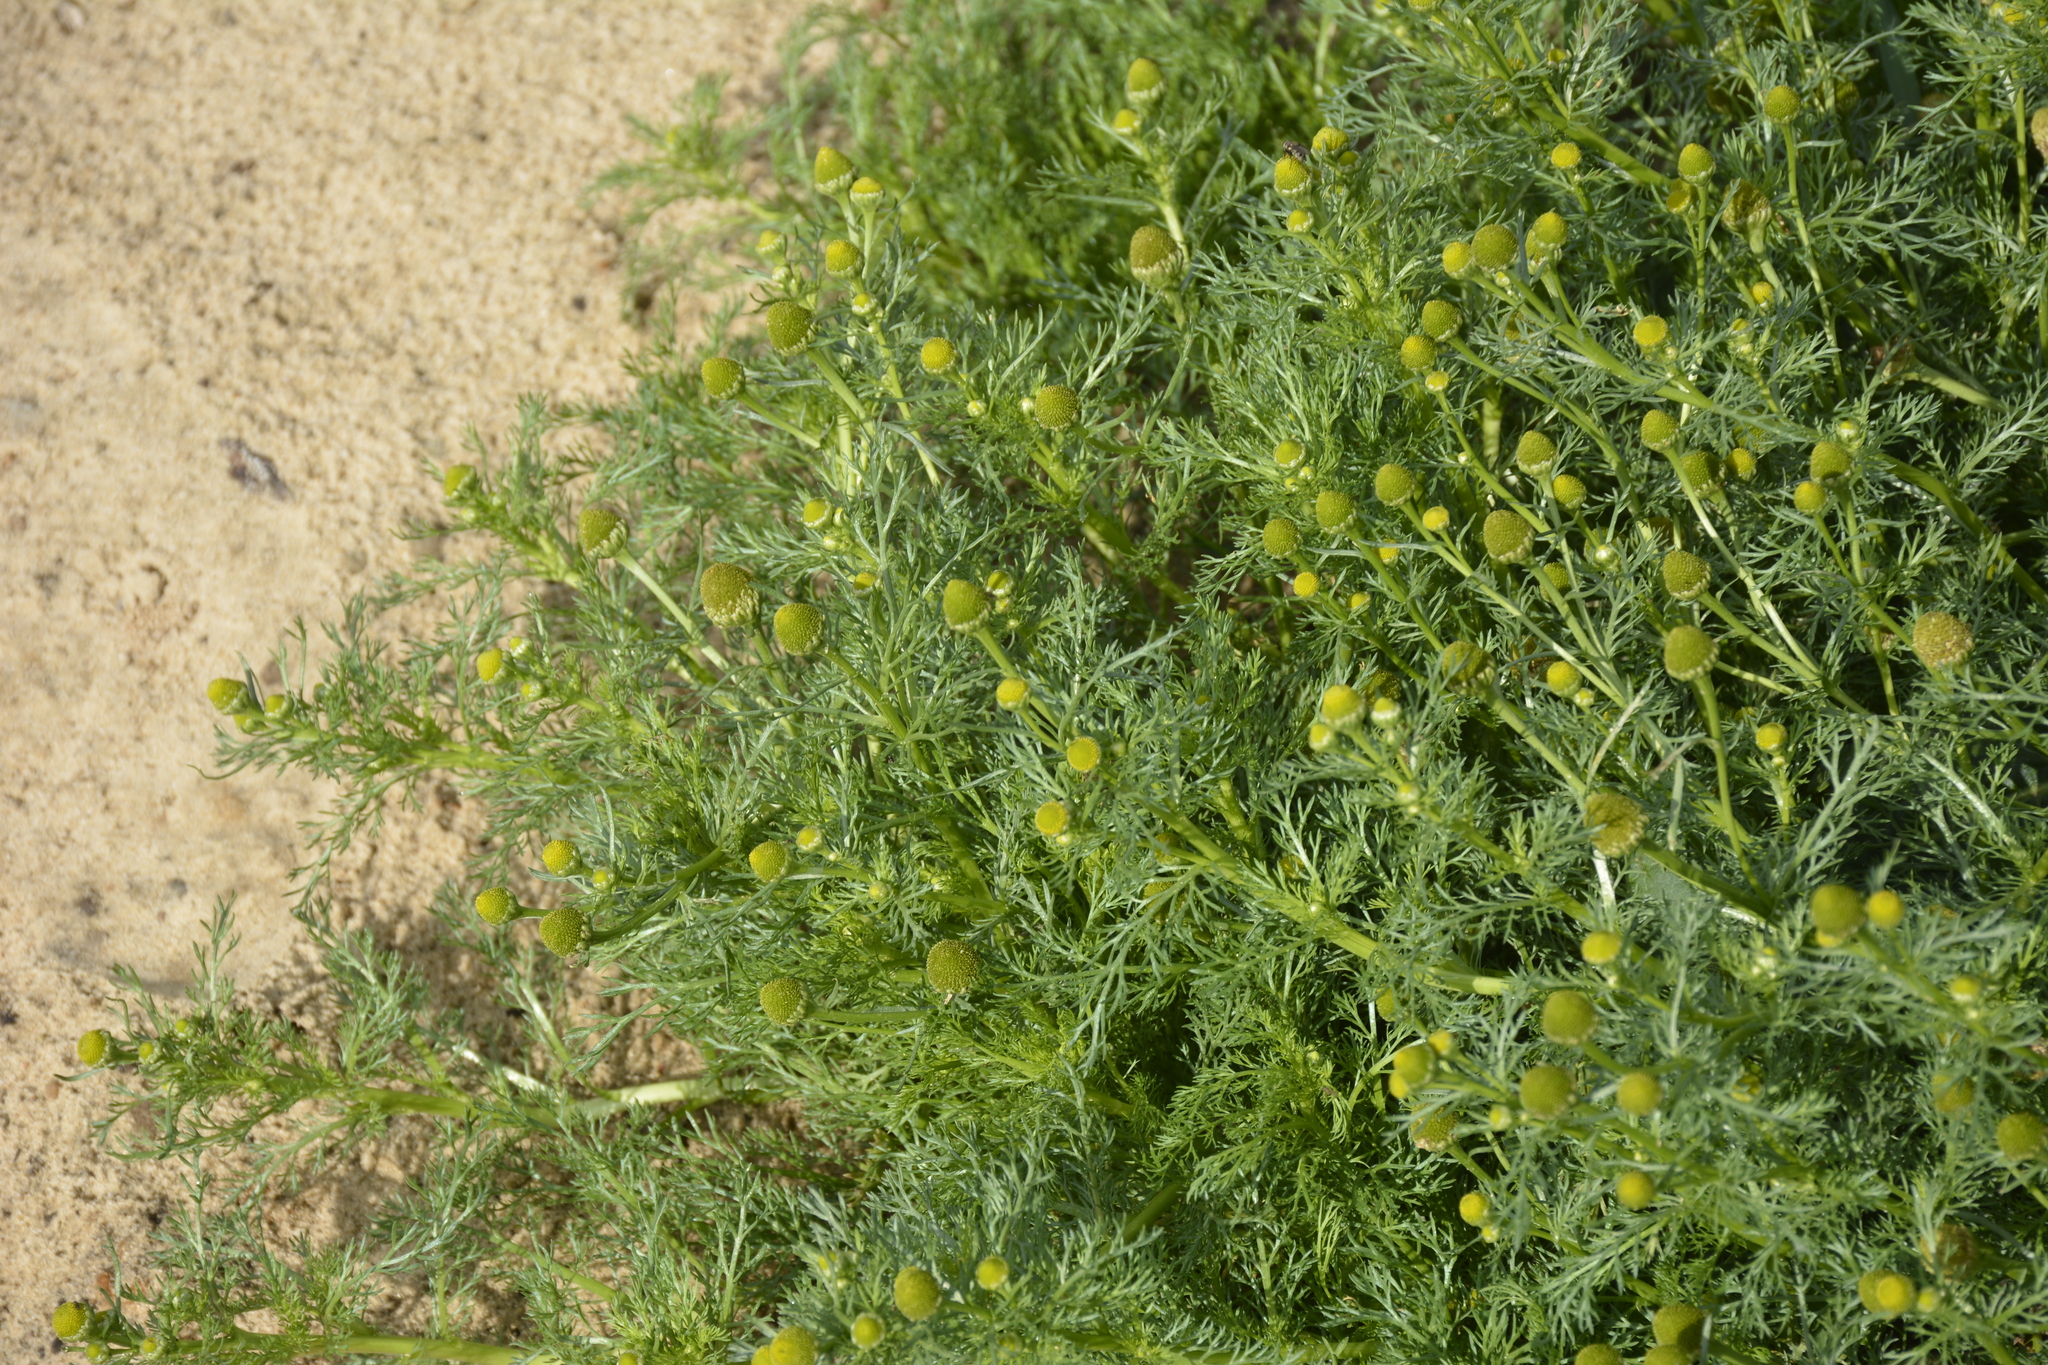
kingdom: Plantae
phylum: Tracheophyta
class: Magnoliopsida
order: Asterales
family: Asteraceae
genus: Matricaria
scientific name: Matricaria discoidea
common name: Disc mayweed
